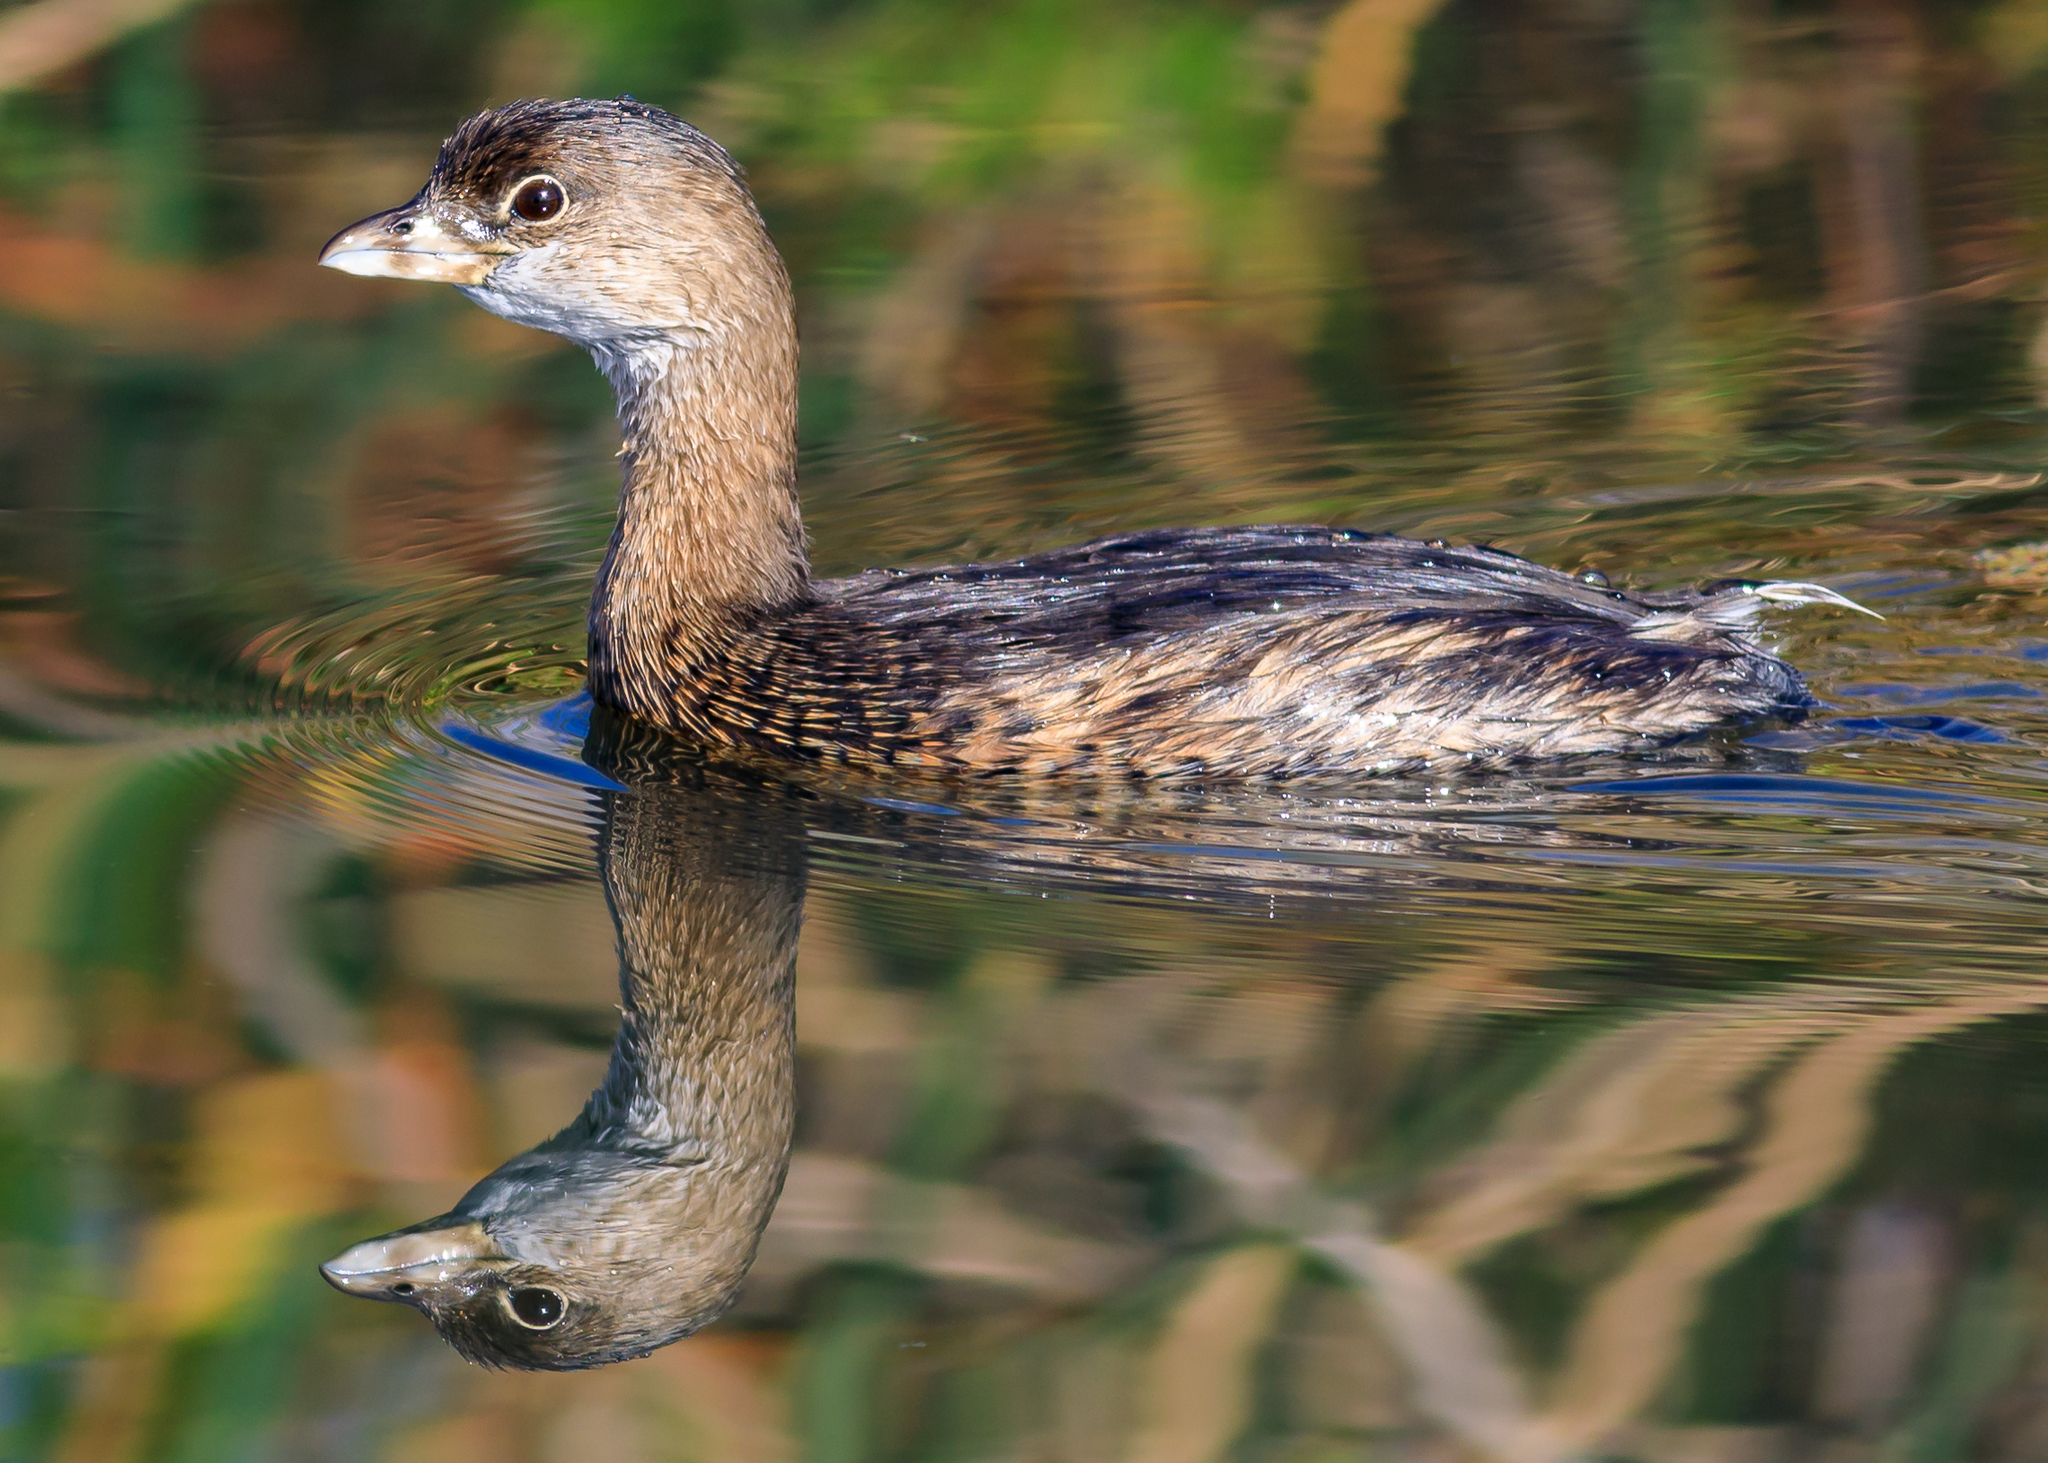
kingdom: Animalia
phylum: Chordata
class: Aves
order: Podicipediformes
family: Podicipedidae
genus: Podilymbus
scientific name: Podilymbus podiceps
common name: Pied-billed grebe
